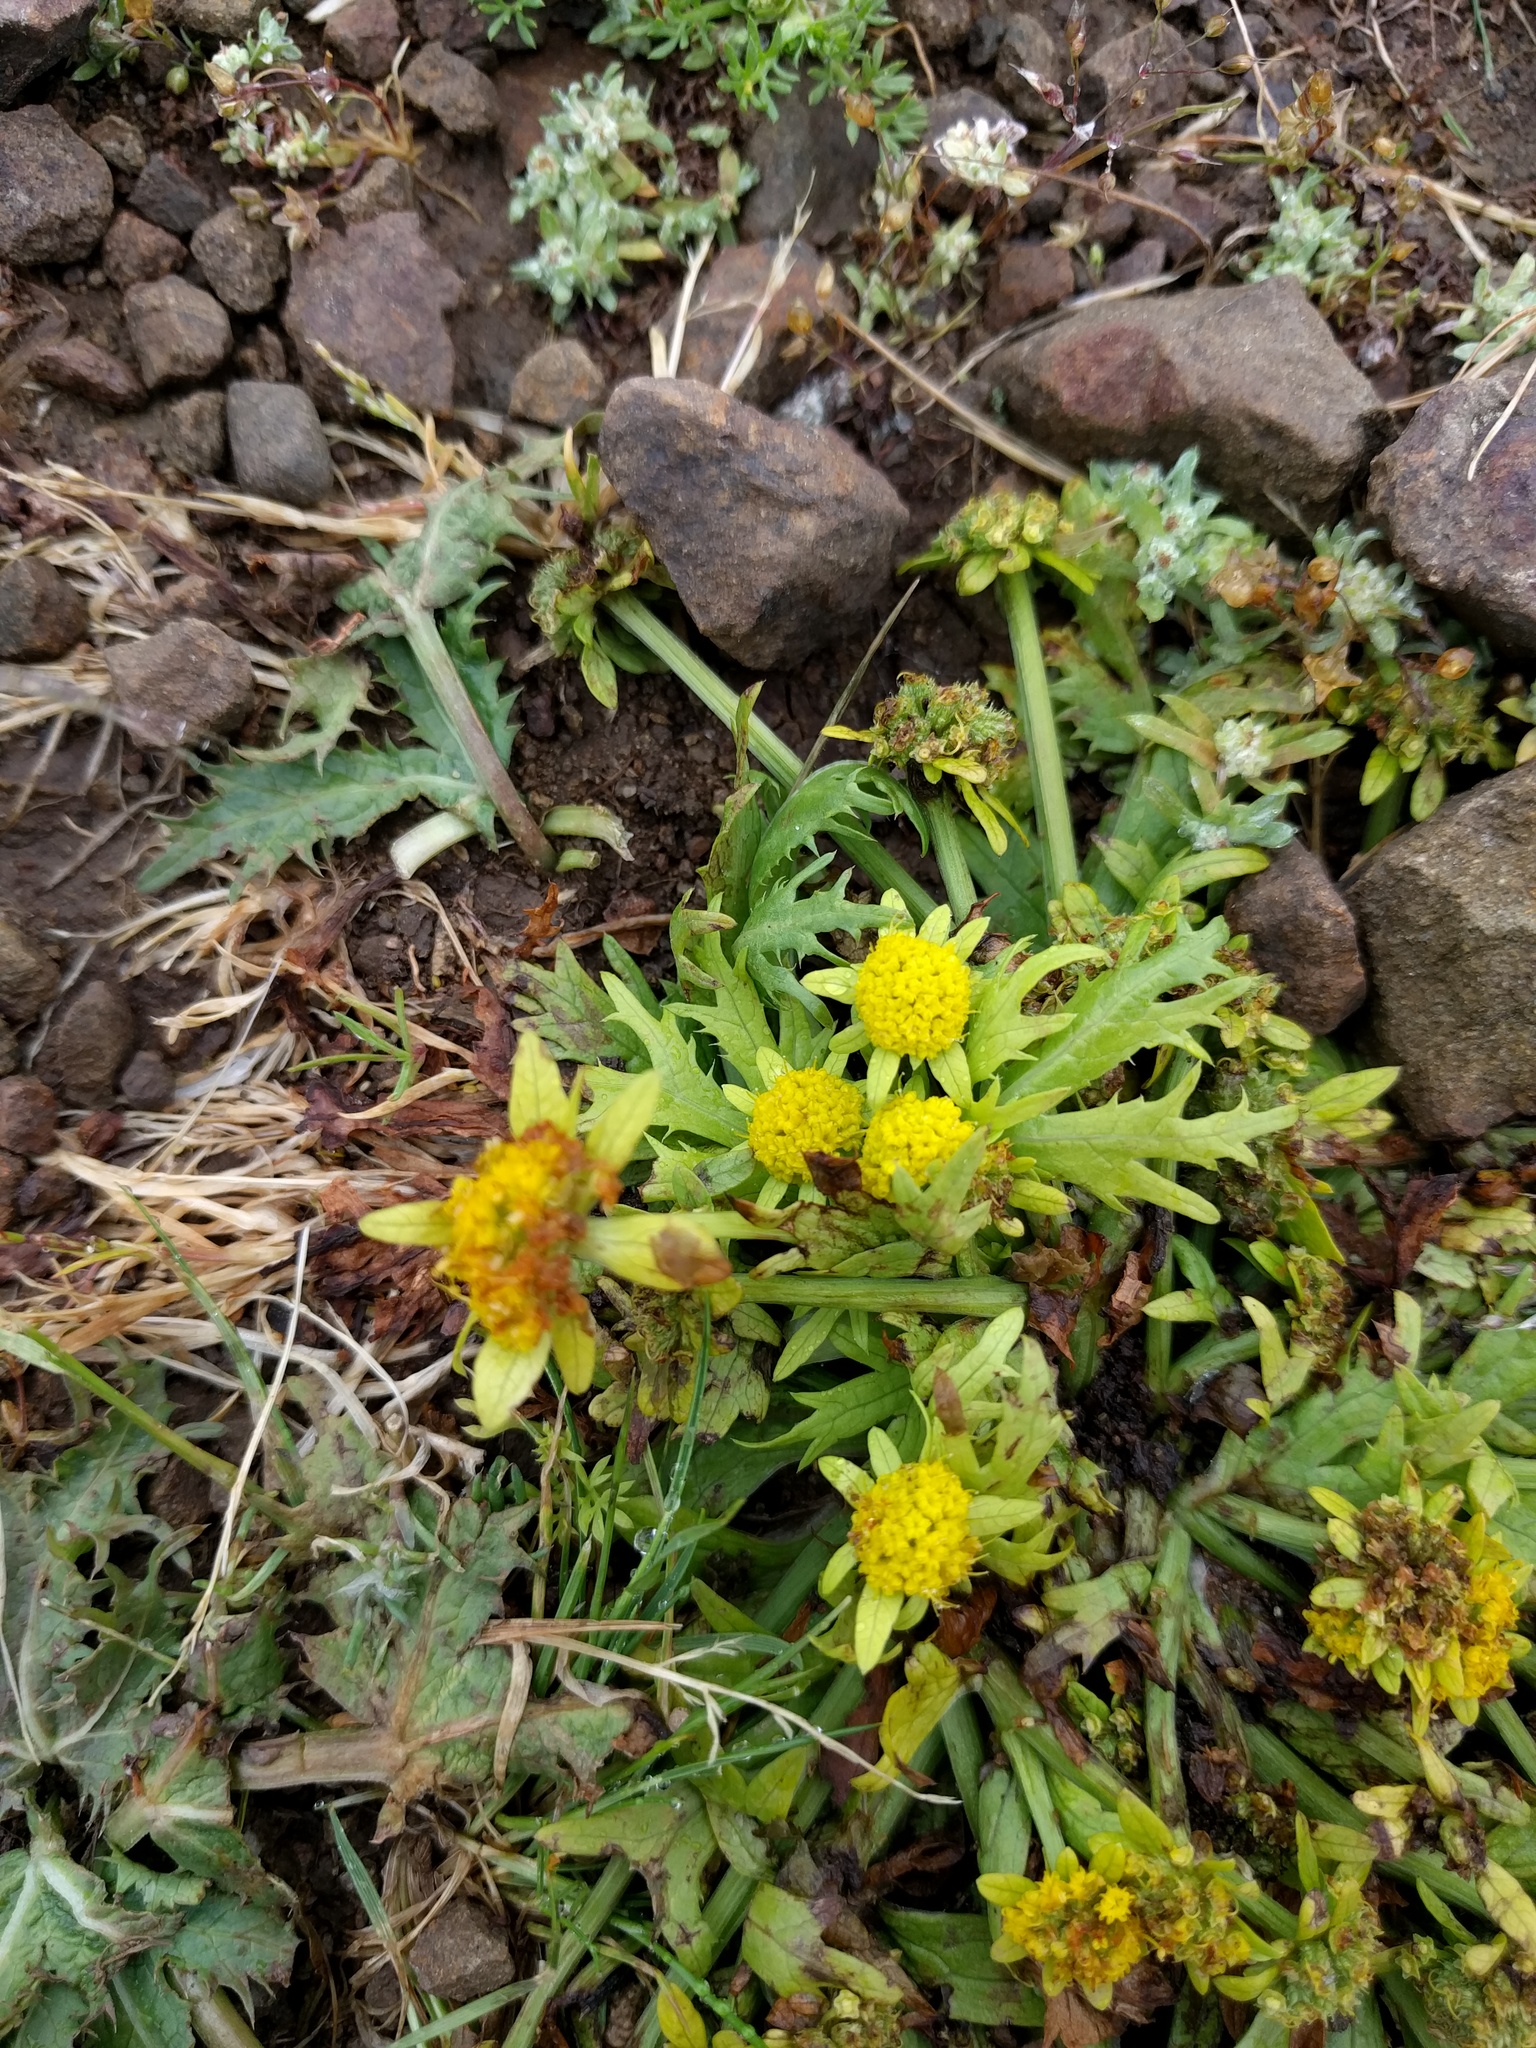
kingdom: Plantae
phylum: Tracheophyta
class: Magnoliopsida
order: Apiales
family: Apiaceae
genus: Sanicula
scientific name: Sanicula arctopoides
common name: Footsteps-of-spring
